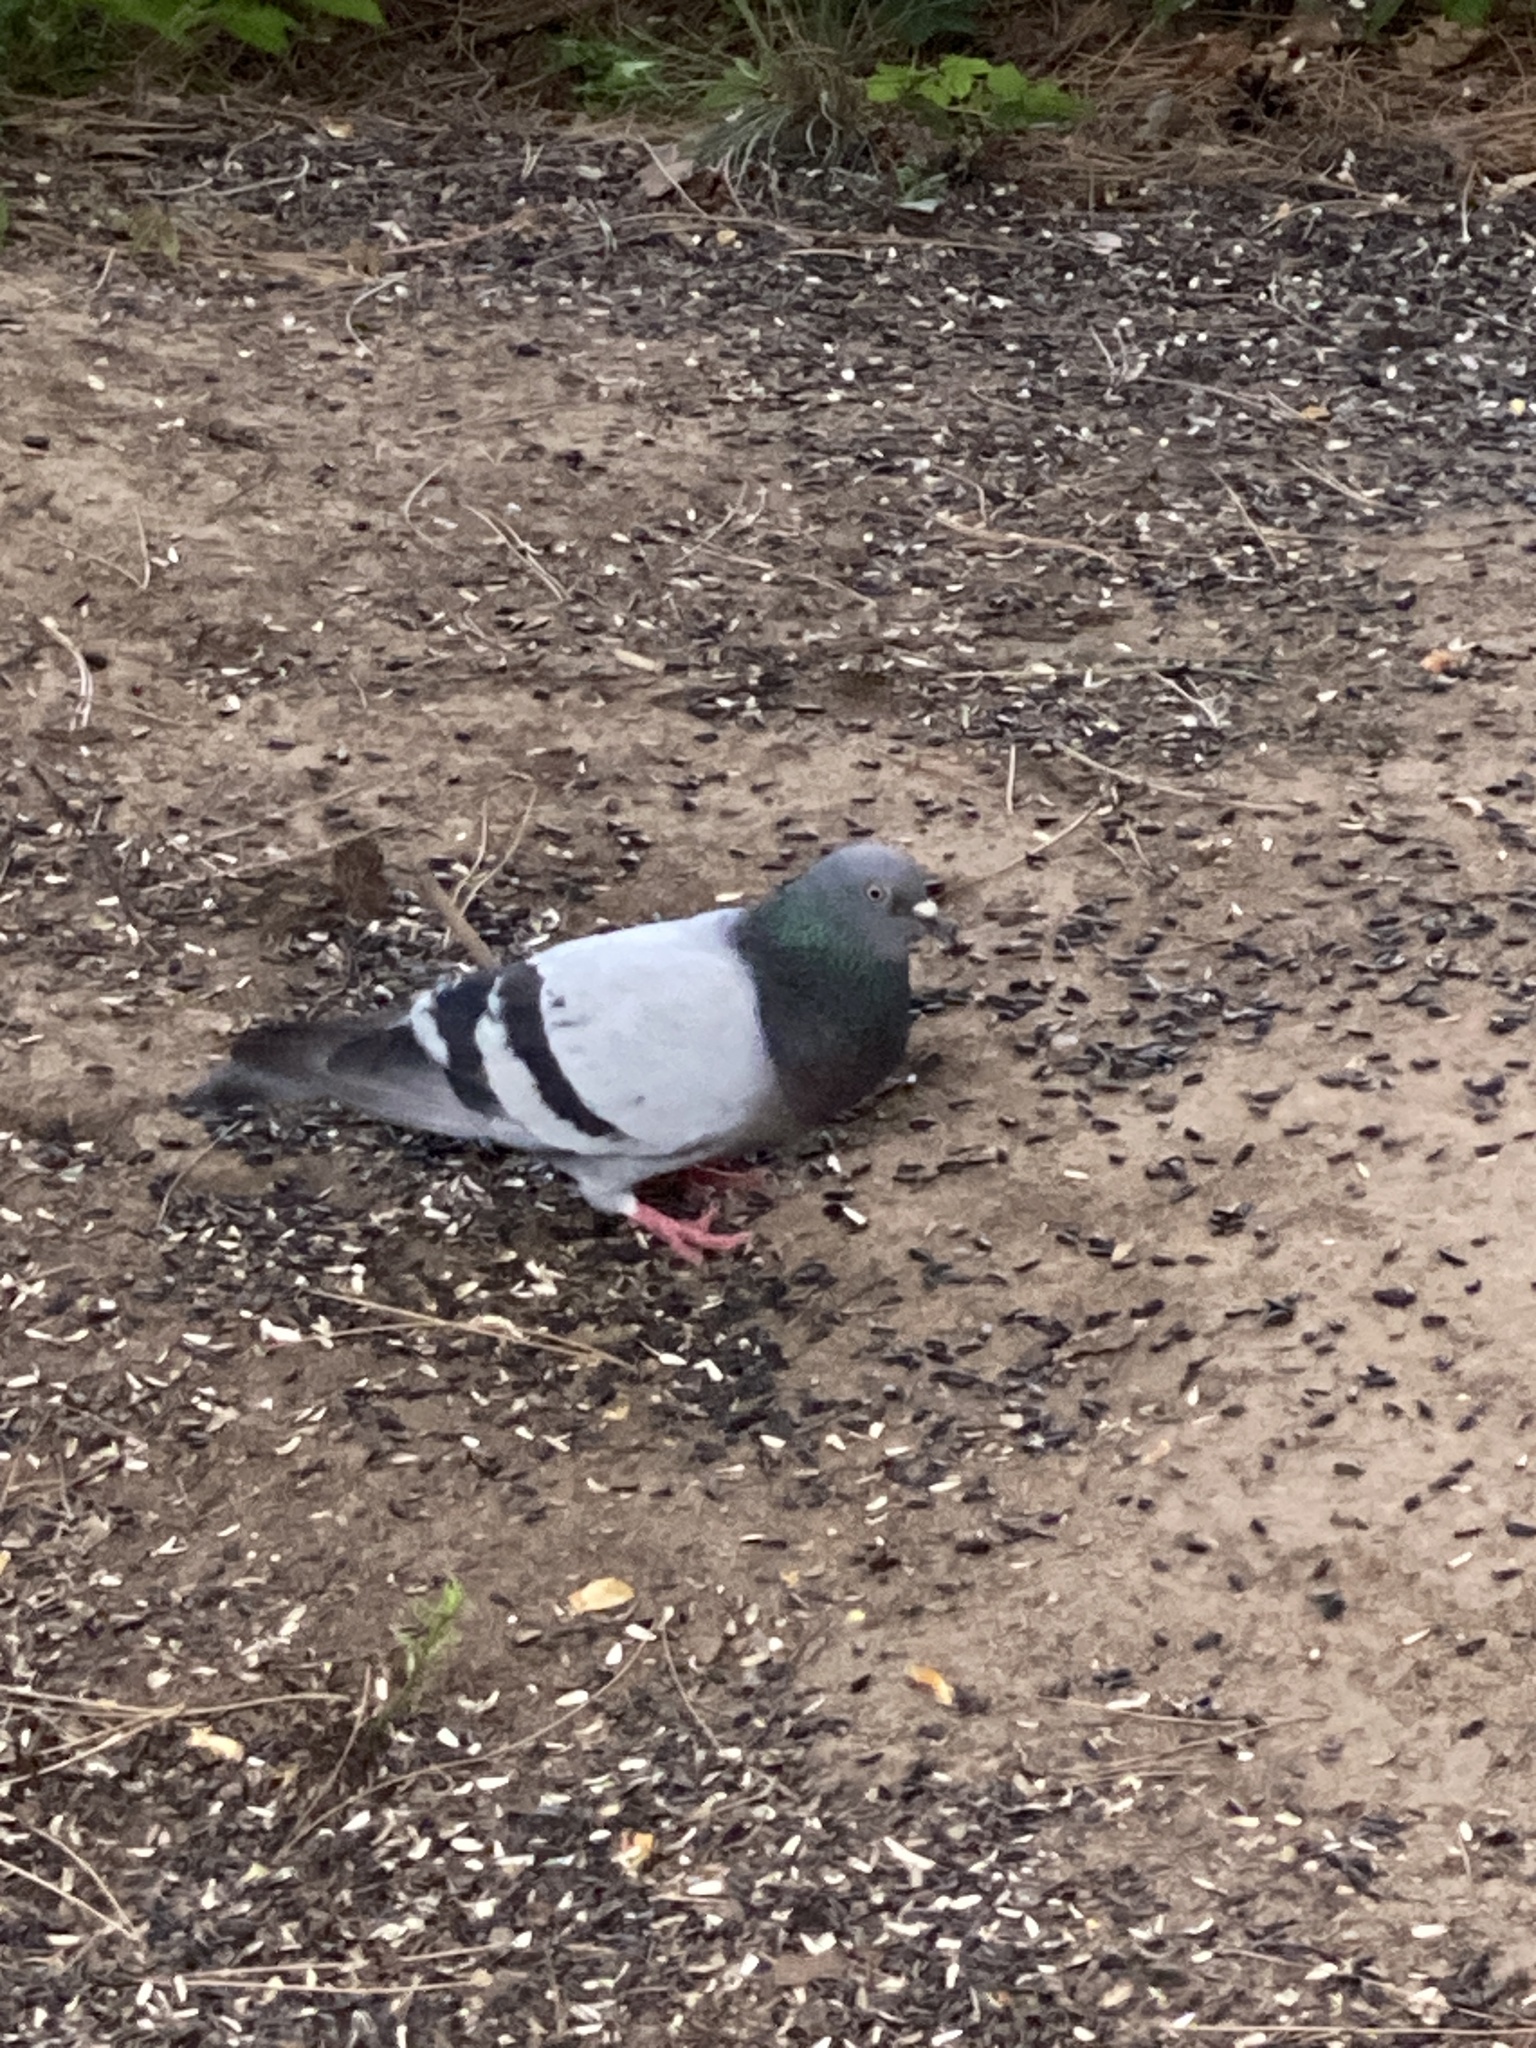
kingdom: Animalia
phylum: Chordata
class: Aves
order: Columbiformes
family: Columbidae
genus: Columba
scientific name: Columba livia
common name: Rock pigeon
